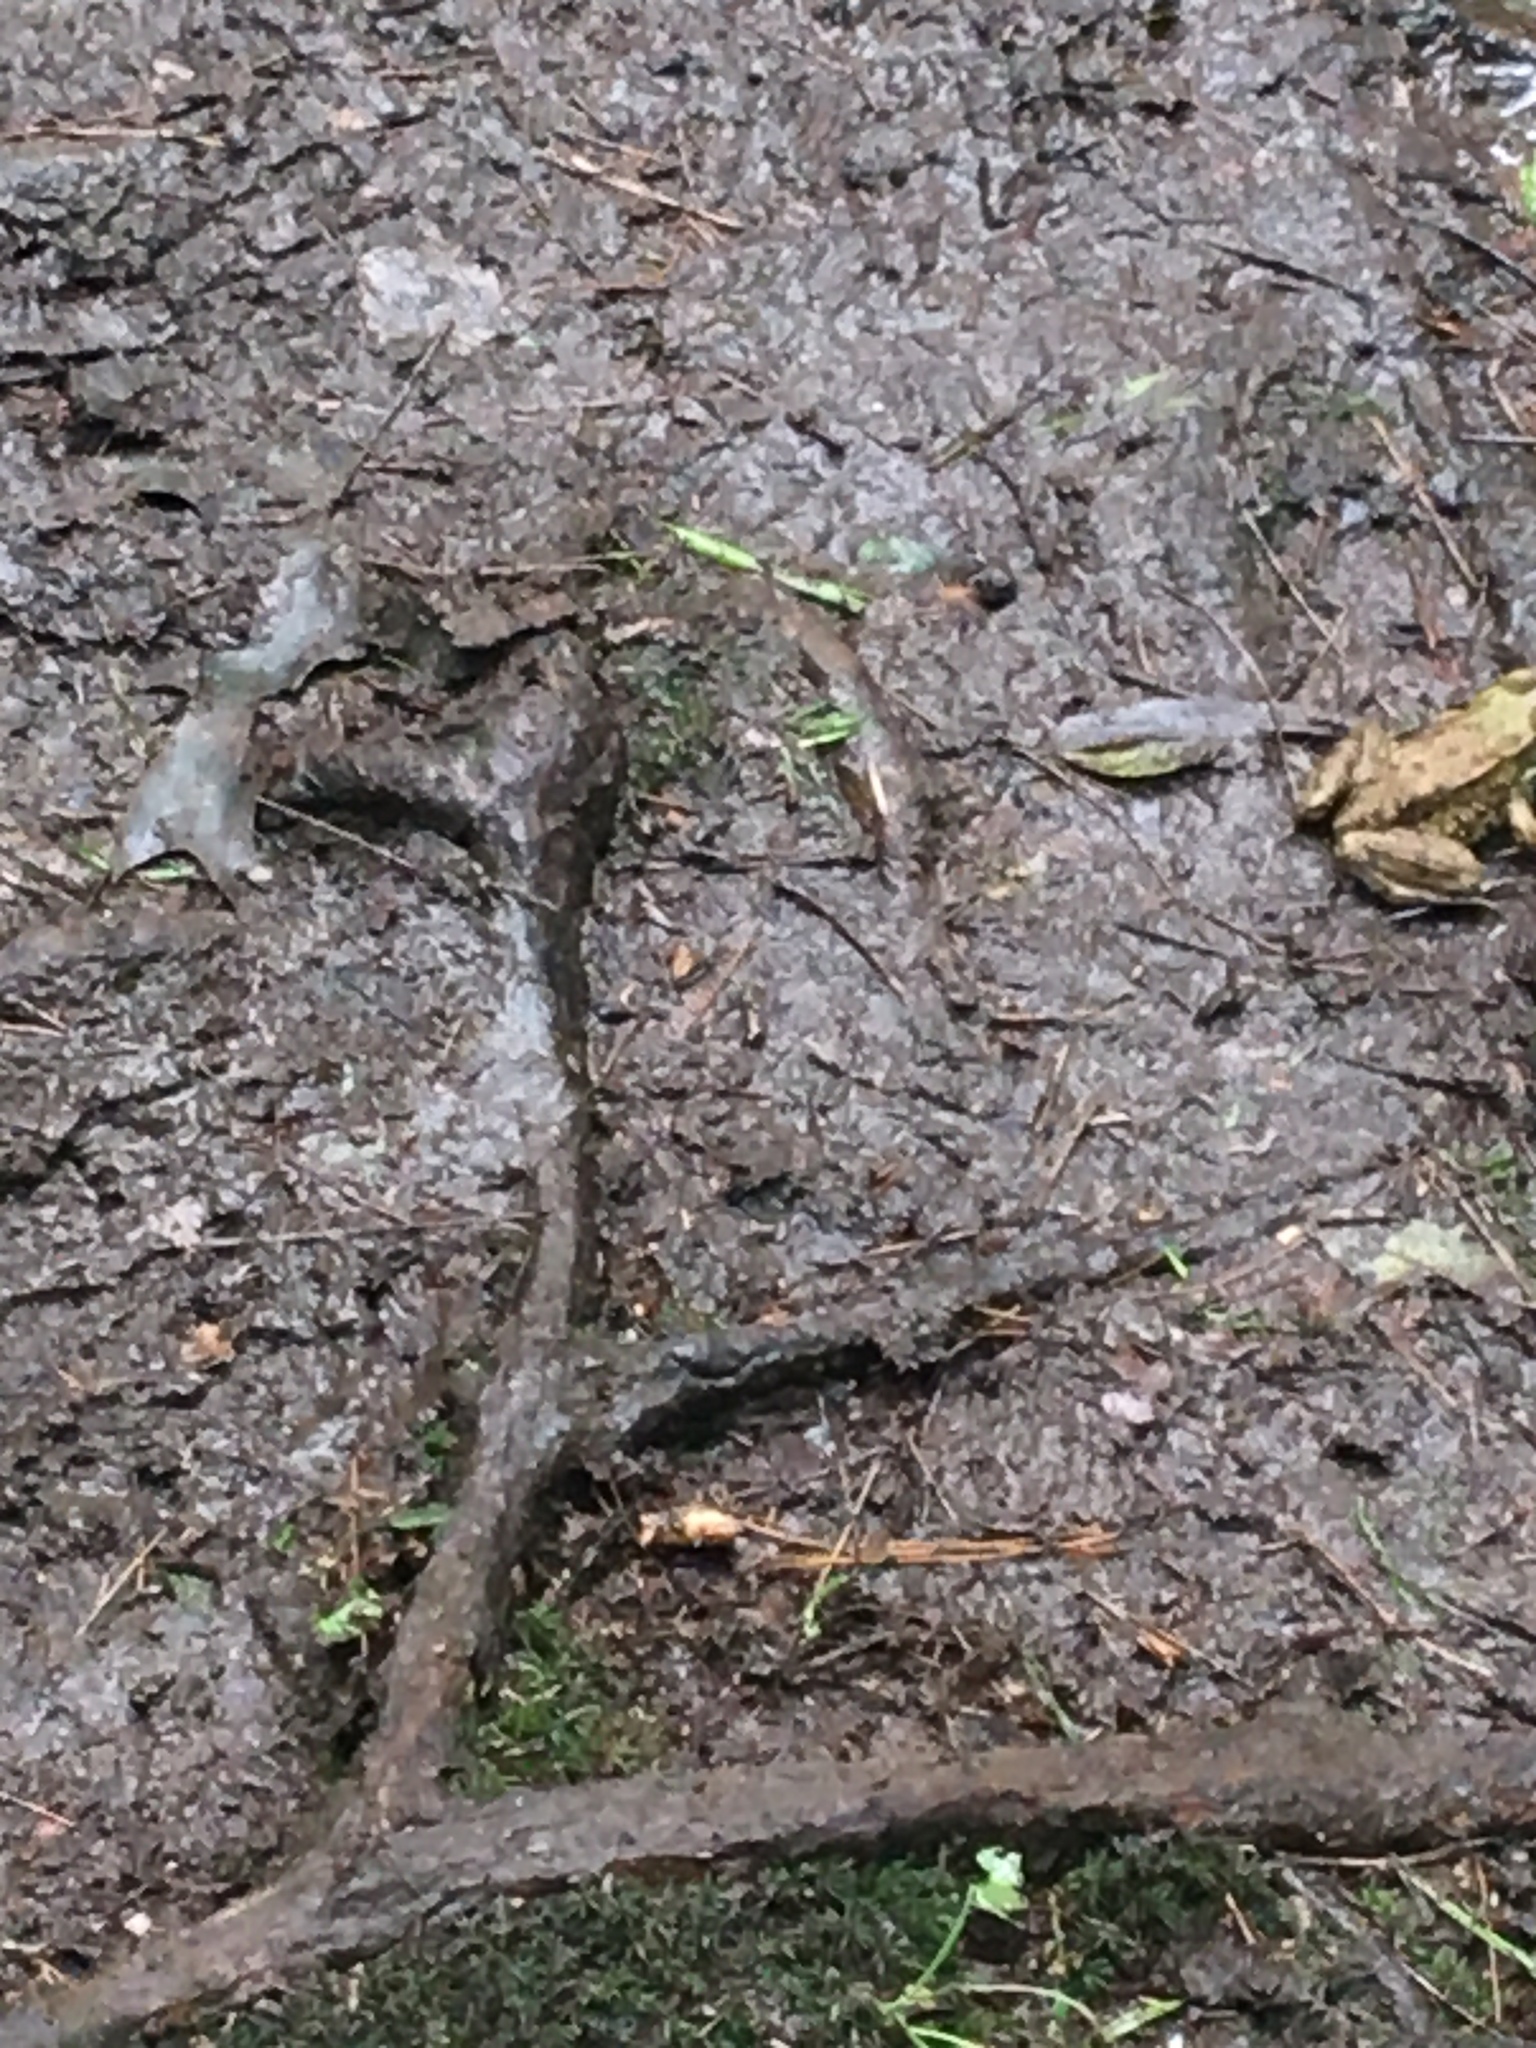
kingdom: Animalia
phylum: Chordata
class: Amphibia
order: Anura
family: Ranidae
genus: Lithobates
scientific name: Lithobates clamitans
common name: Green frog
